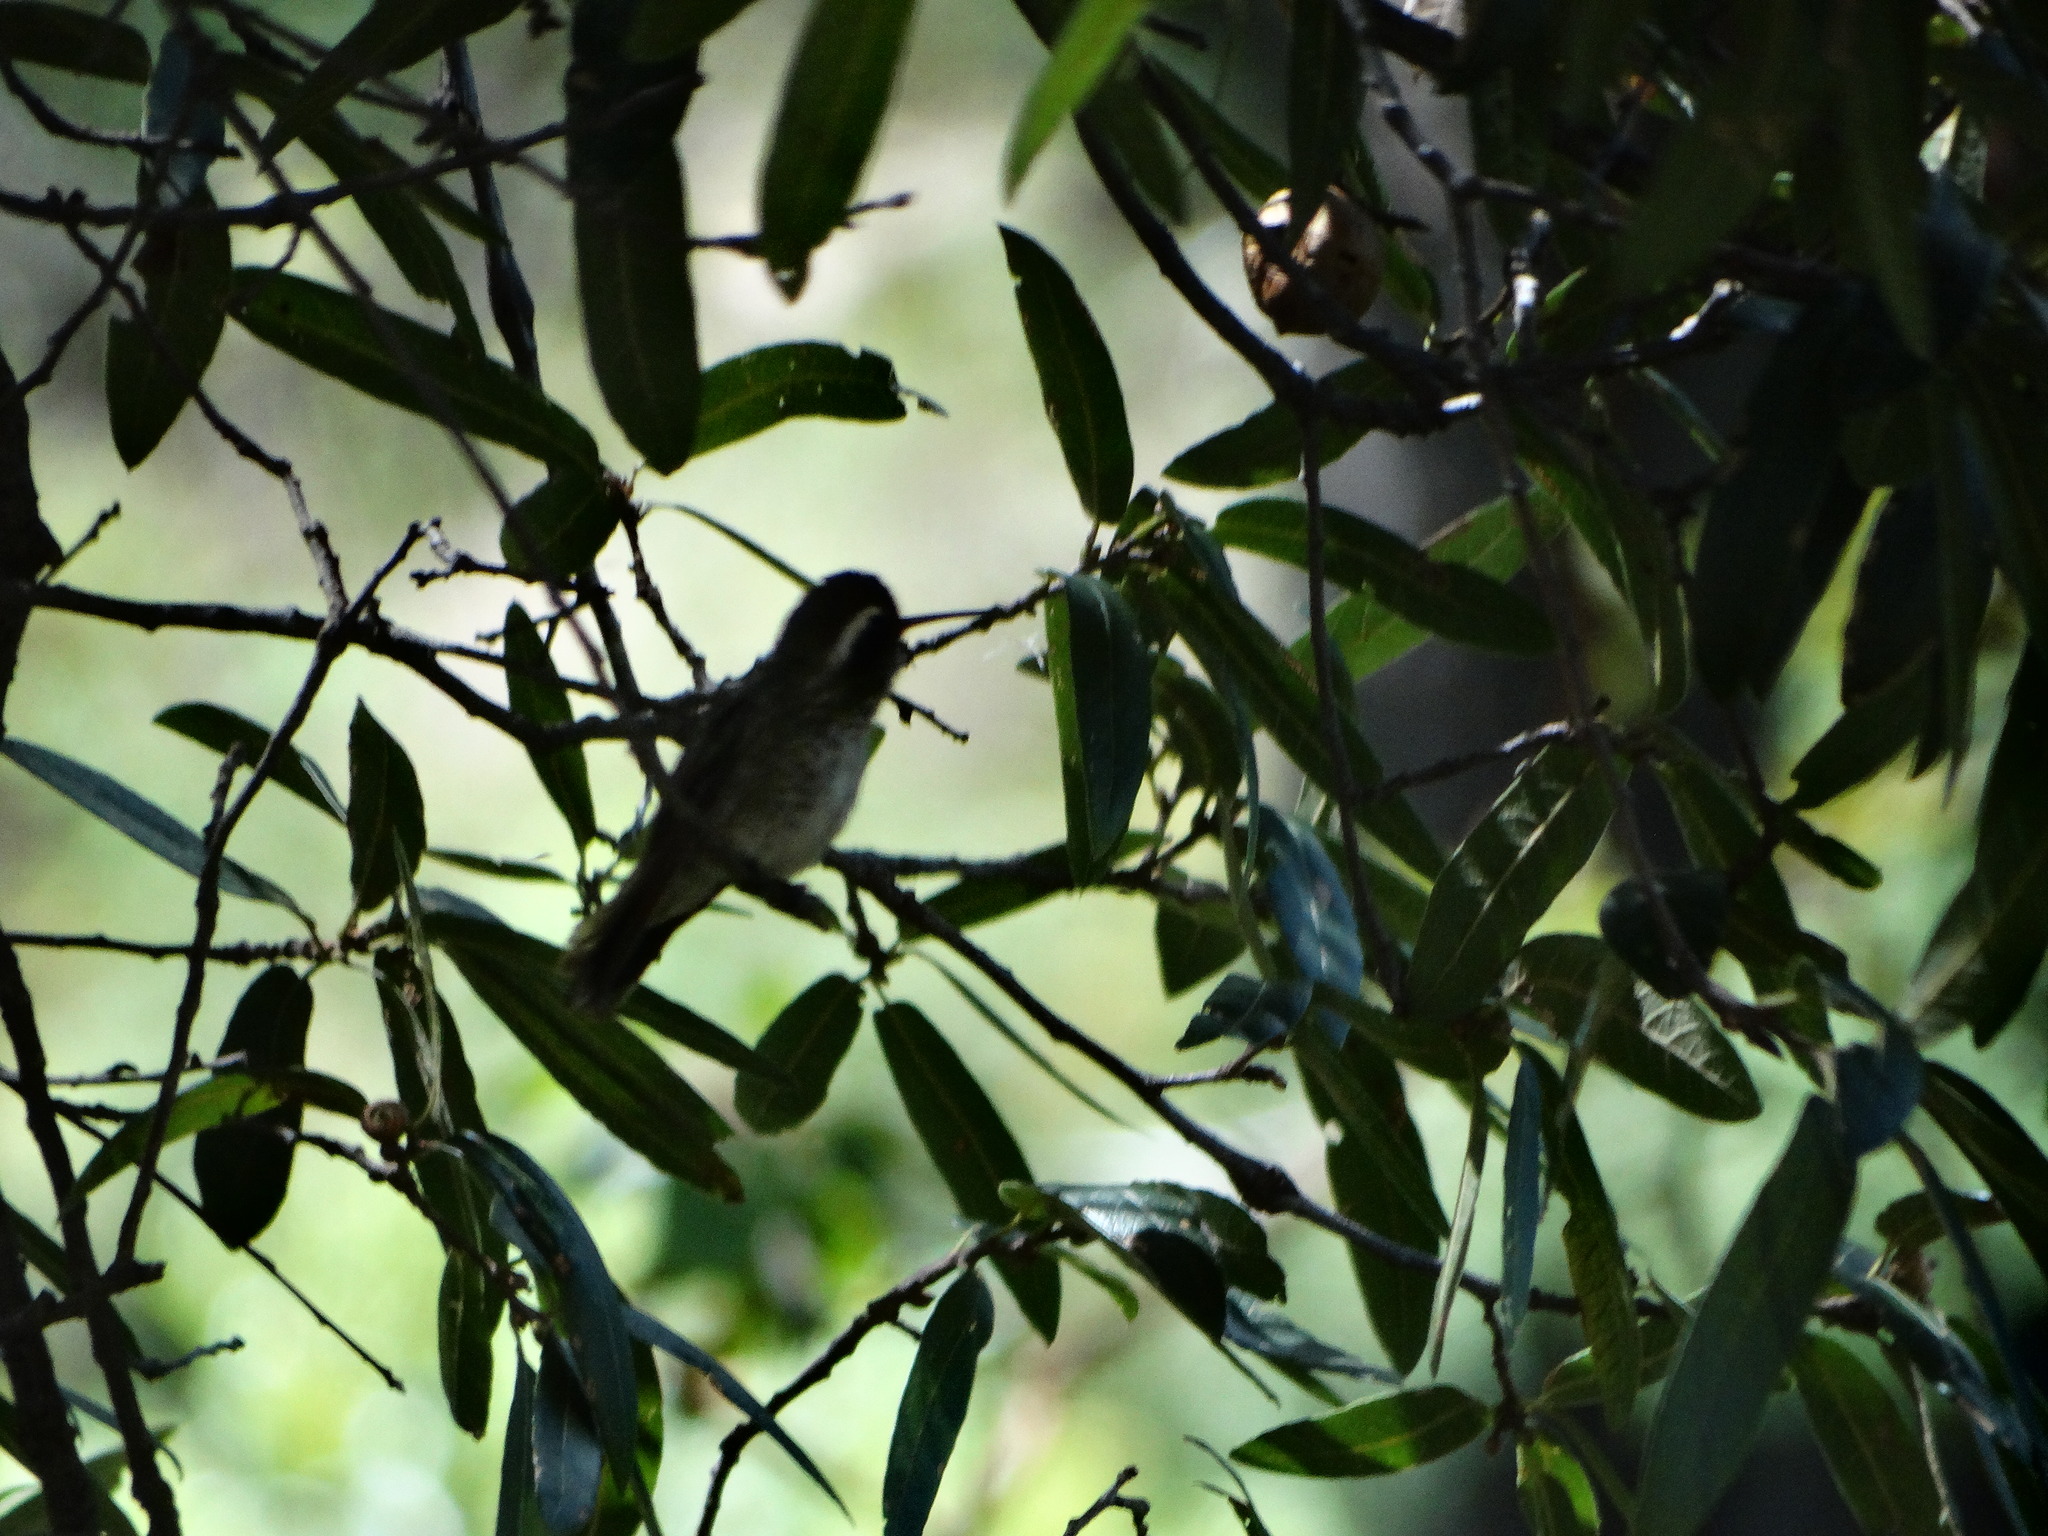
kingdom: Animalia
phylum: Chordata
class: Aves
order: Apodiformes
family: Trochilidae
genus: Basilinna
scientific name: Basilinna leucotis
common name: White-eared hummingbird
